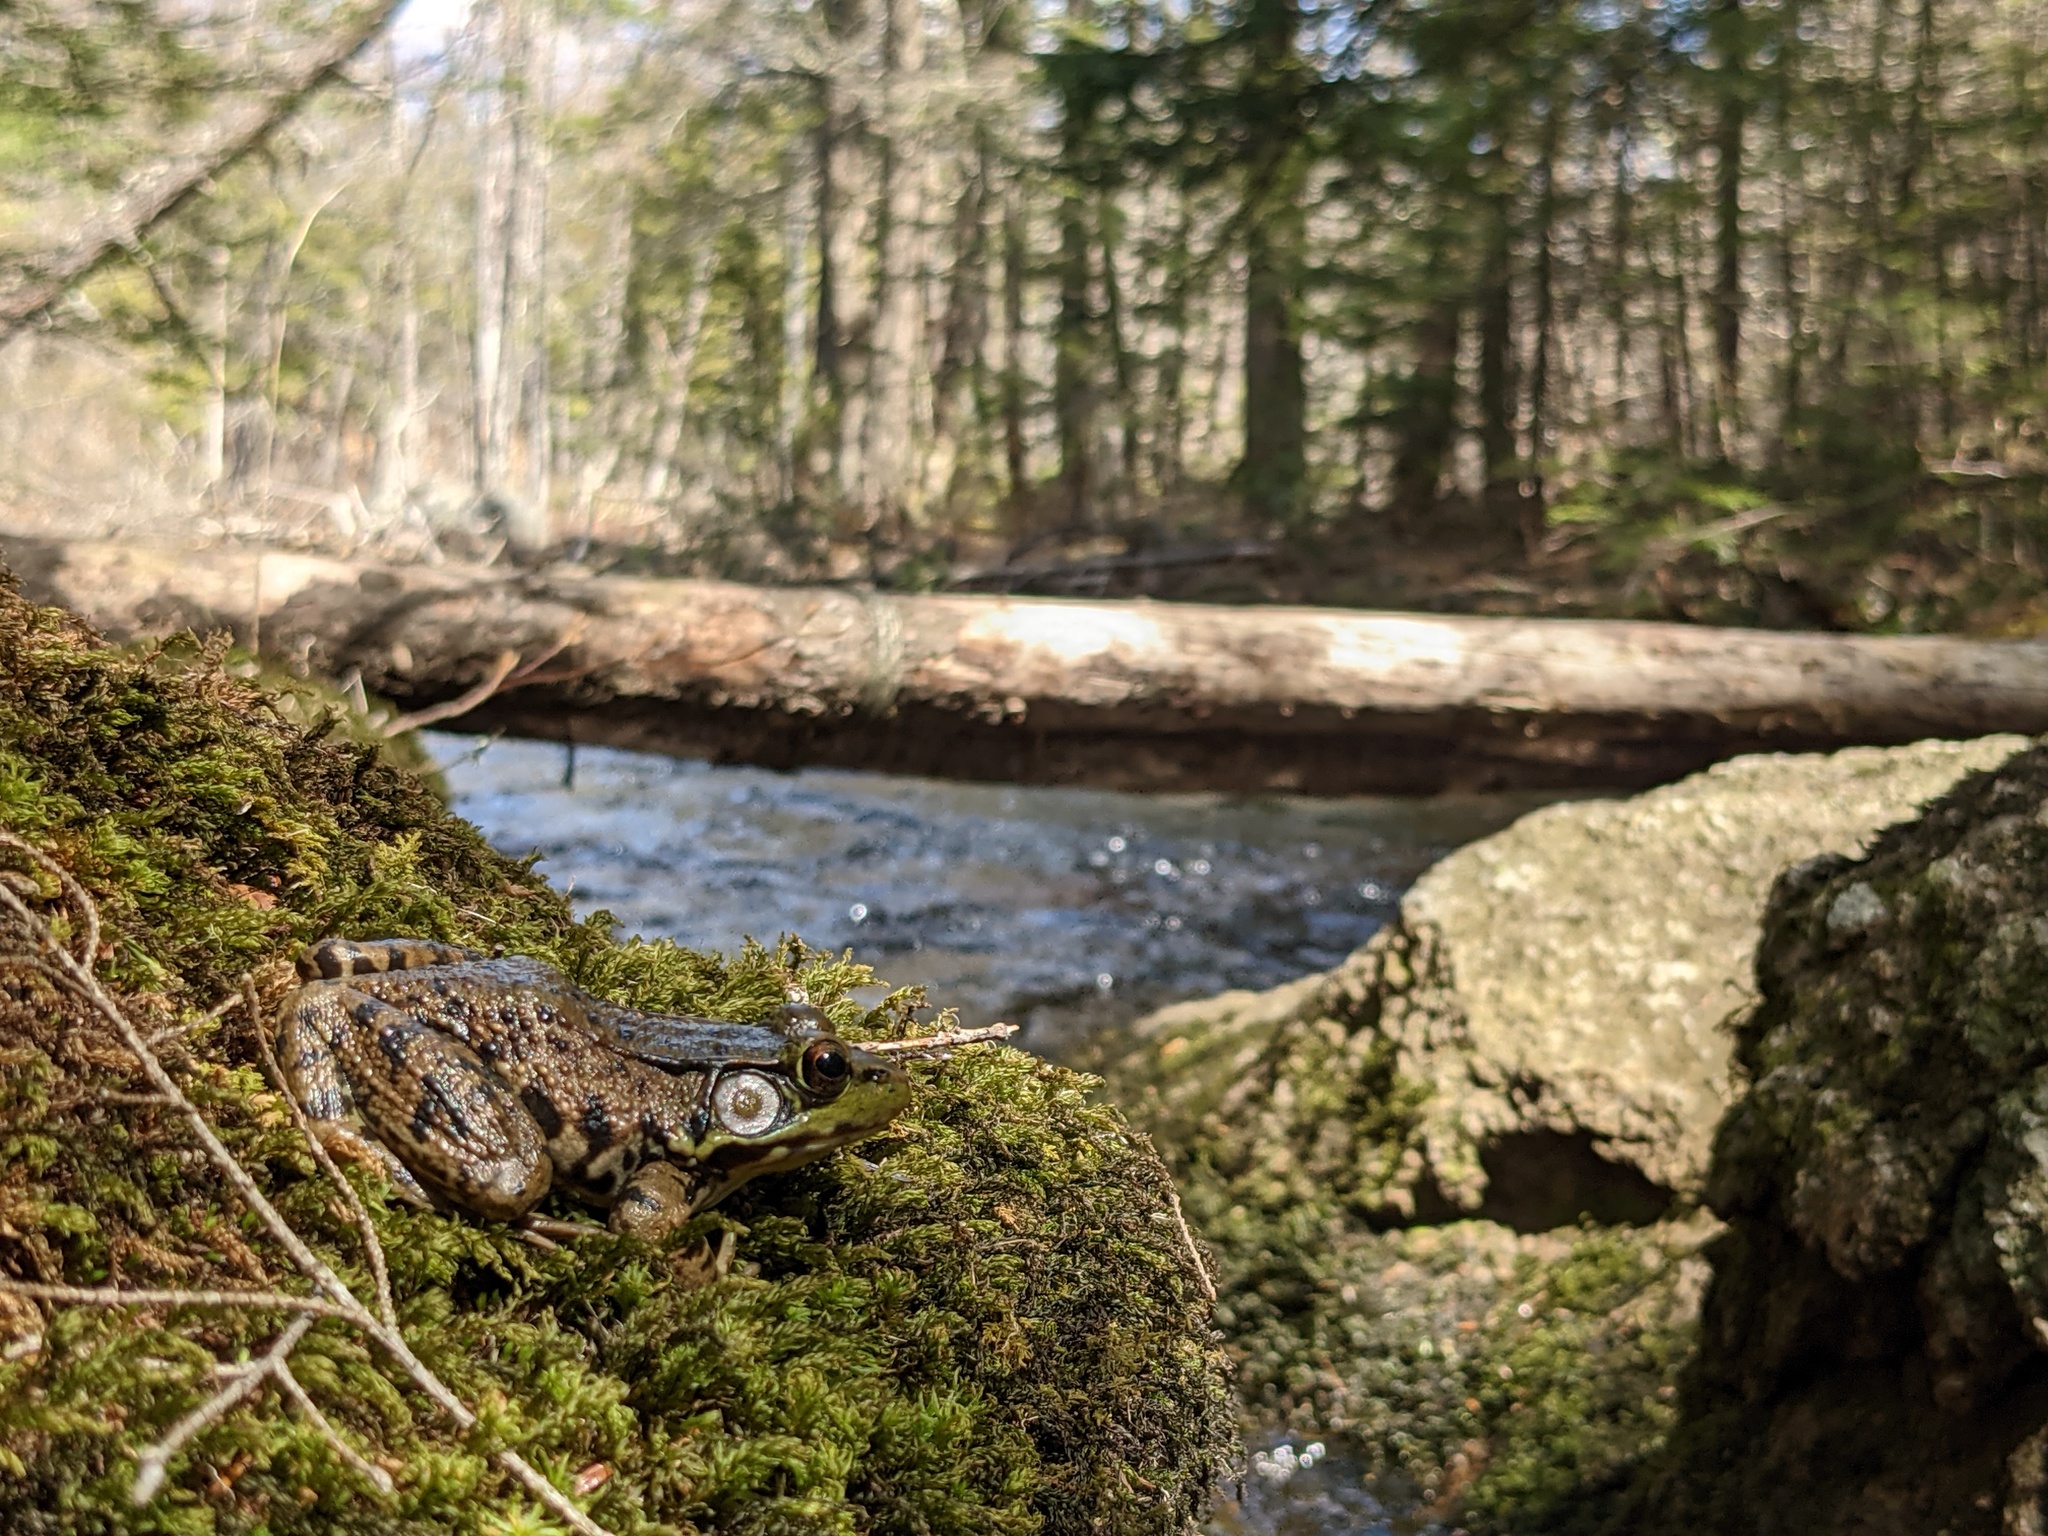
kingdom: Animalia
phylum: Chordata
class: Amphibia
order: Anura
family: Ranidae
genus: Lithobates
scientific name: Lithobates clamitans
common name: Green frog
